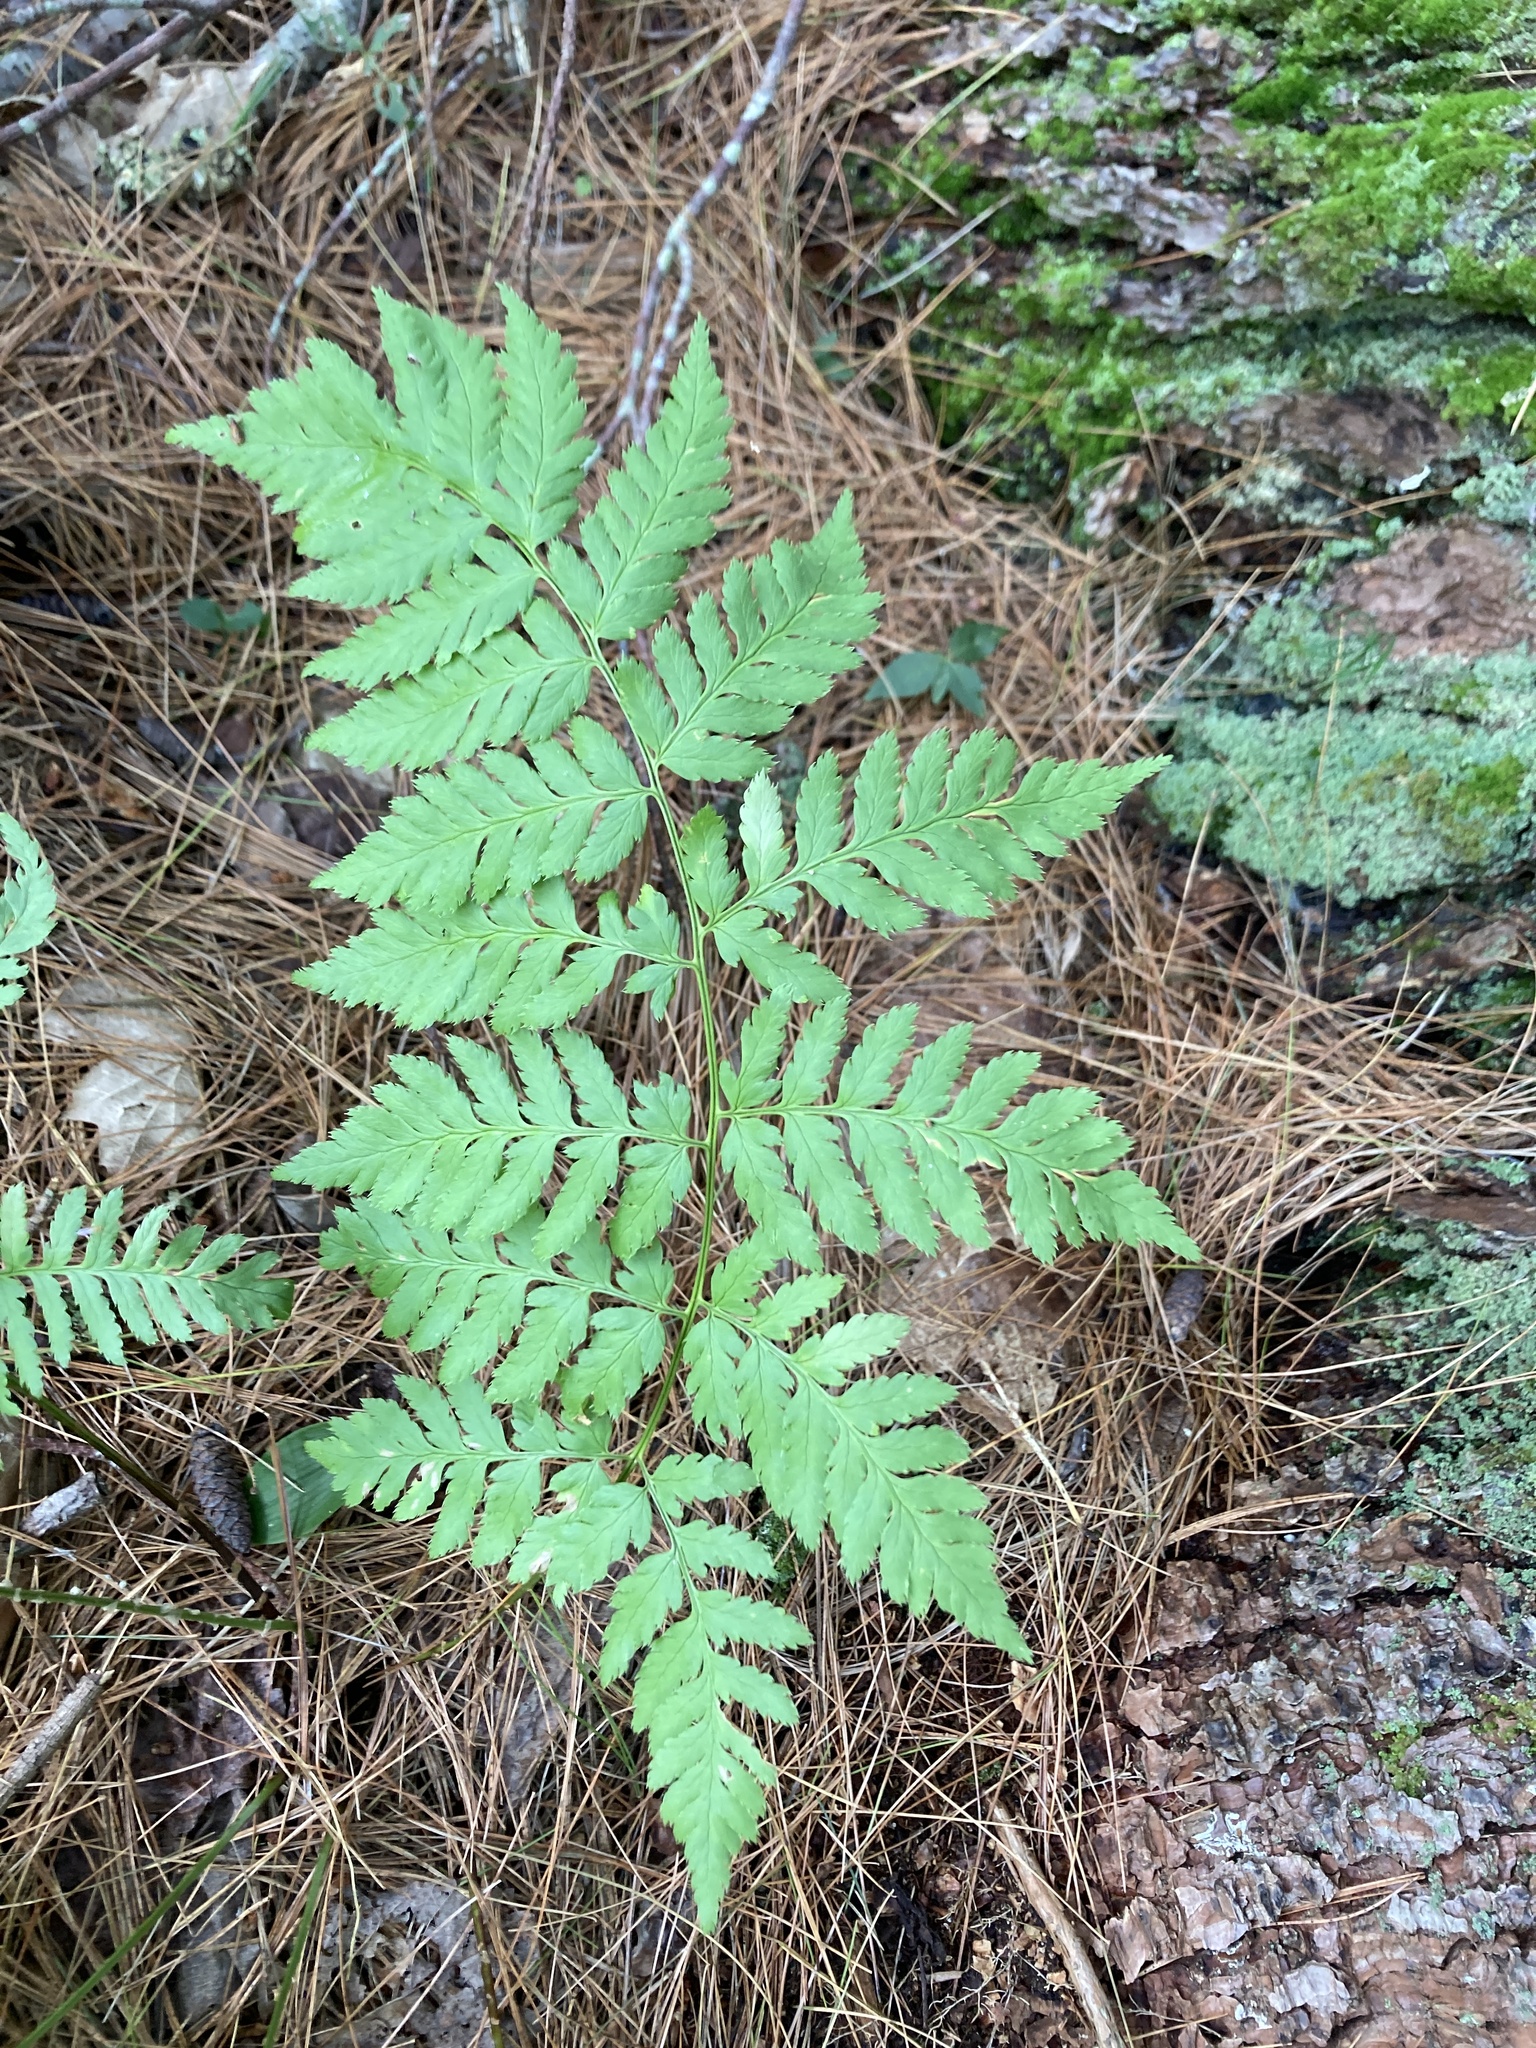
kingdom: Plantae
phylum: Tracheophyta
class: Polypodiopsida
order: Polypodiales
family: Dryopteridaceae
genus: Dryopteris
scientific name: Dryopteris carthusiana
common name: Narrow buckler-fern
